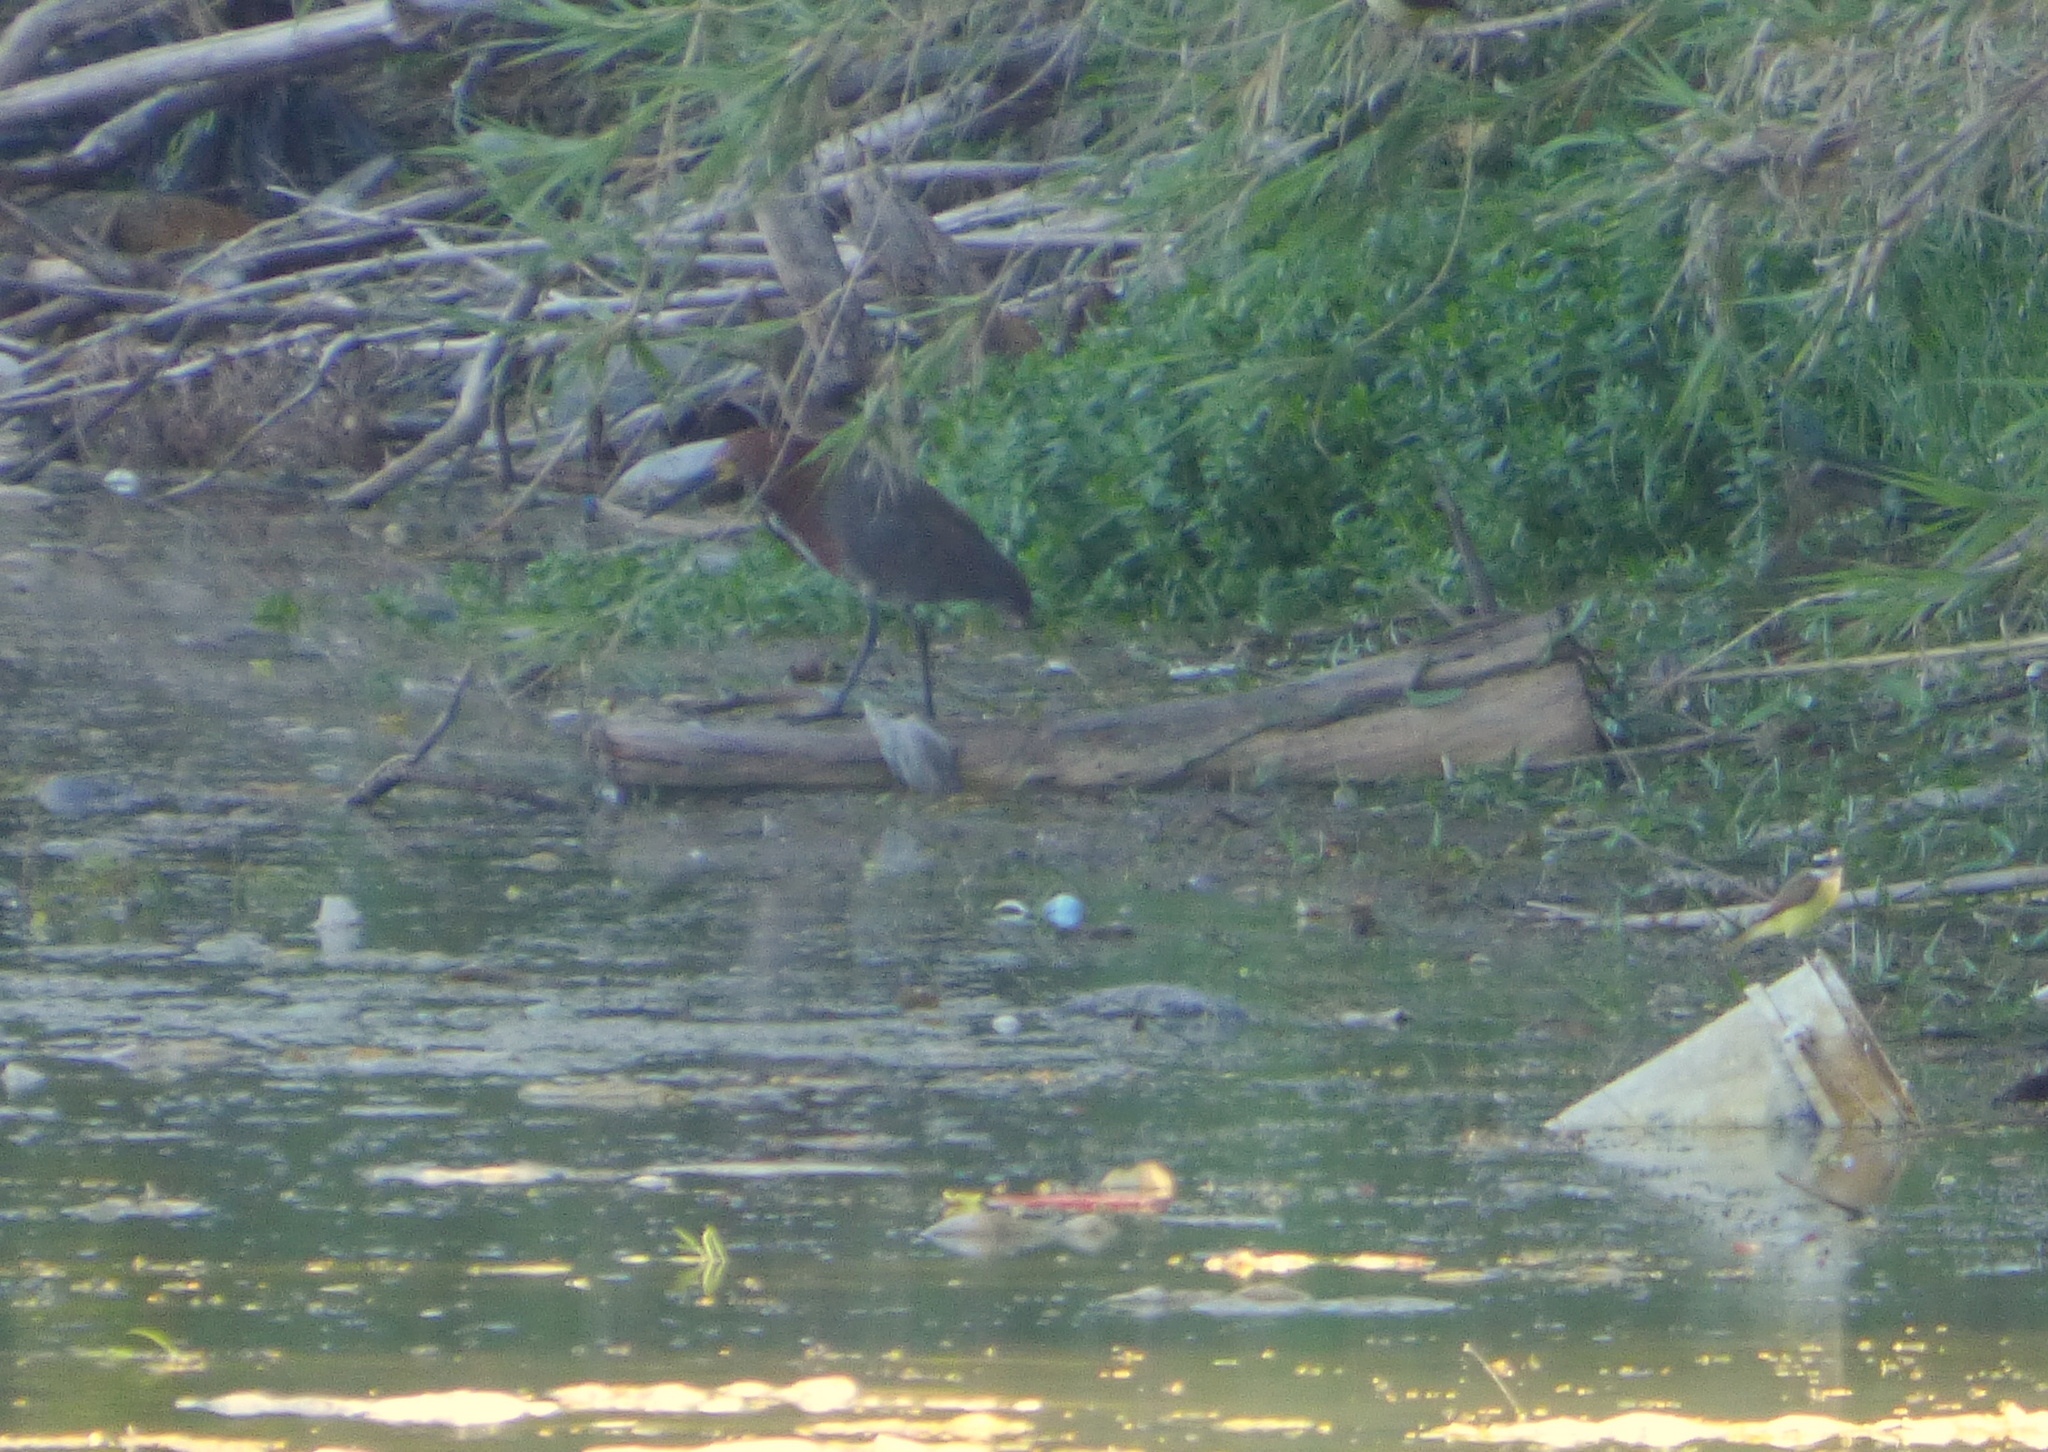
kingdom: Animalia
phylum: Chordata
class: Aves
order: Pelecaniformes
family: Ardeidae
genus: Tigrisoma
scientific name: Tigrisoma lineatum
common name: Rufescent tiger-heron
